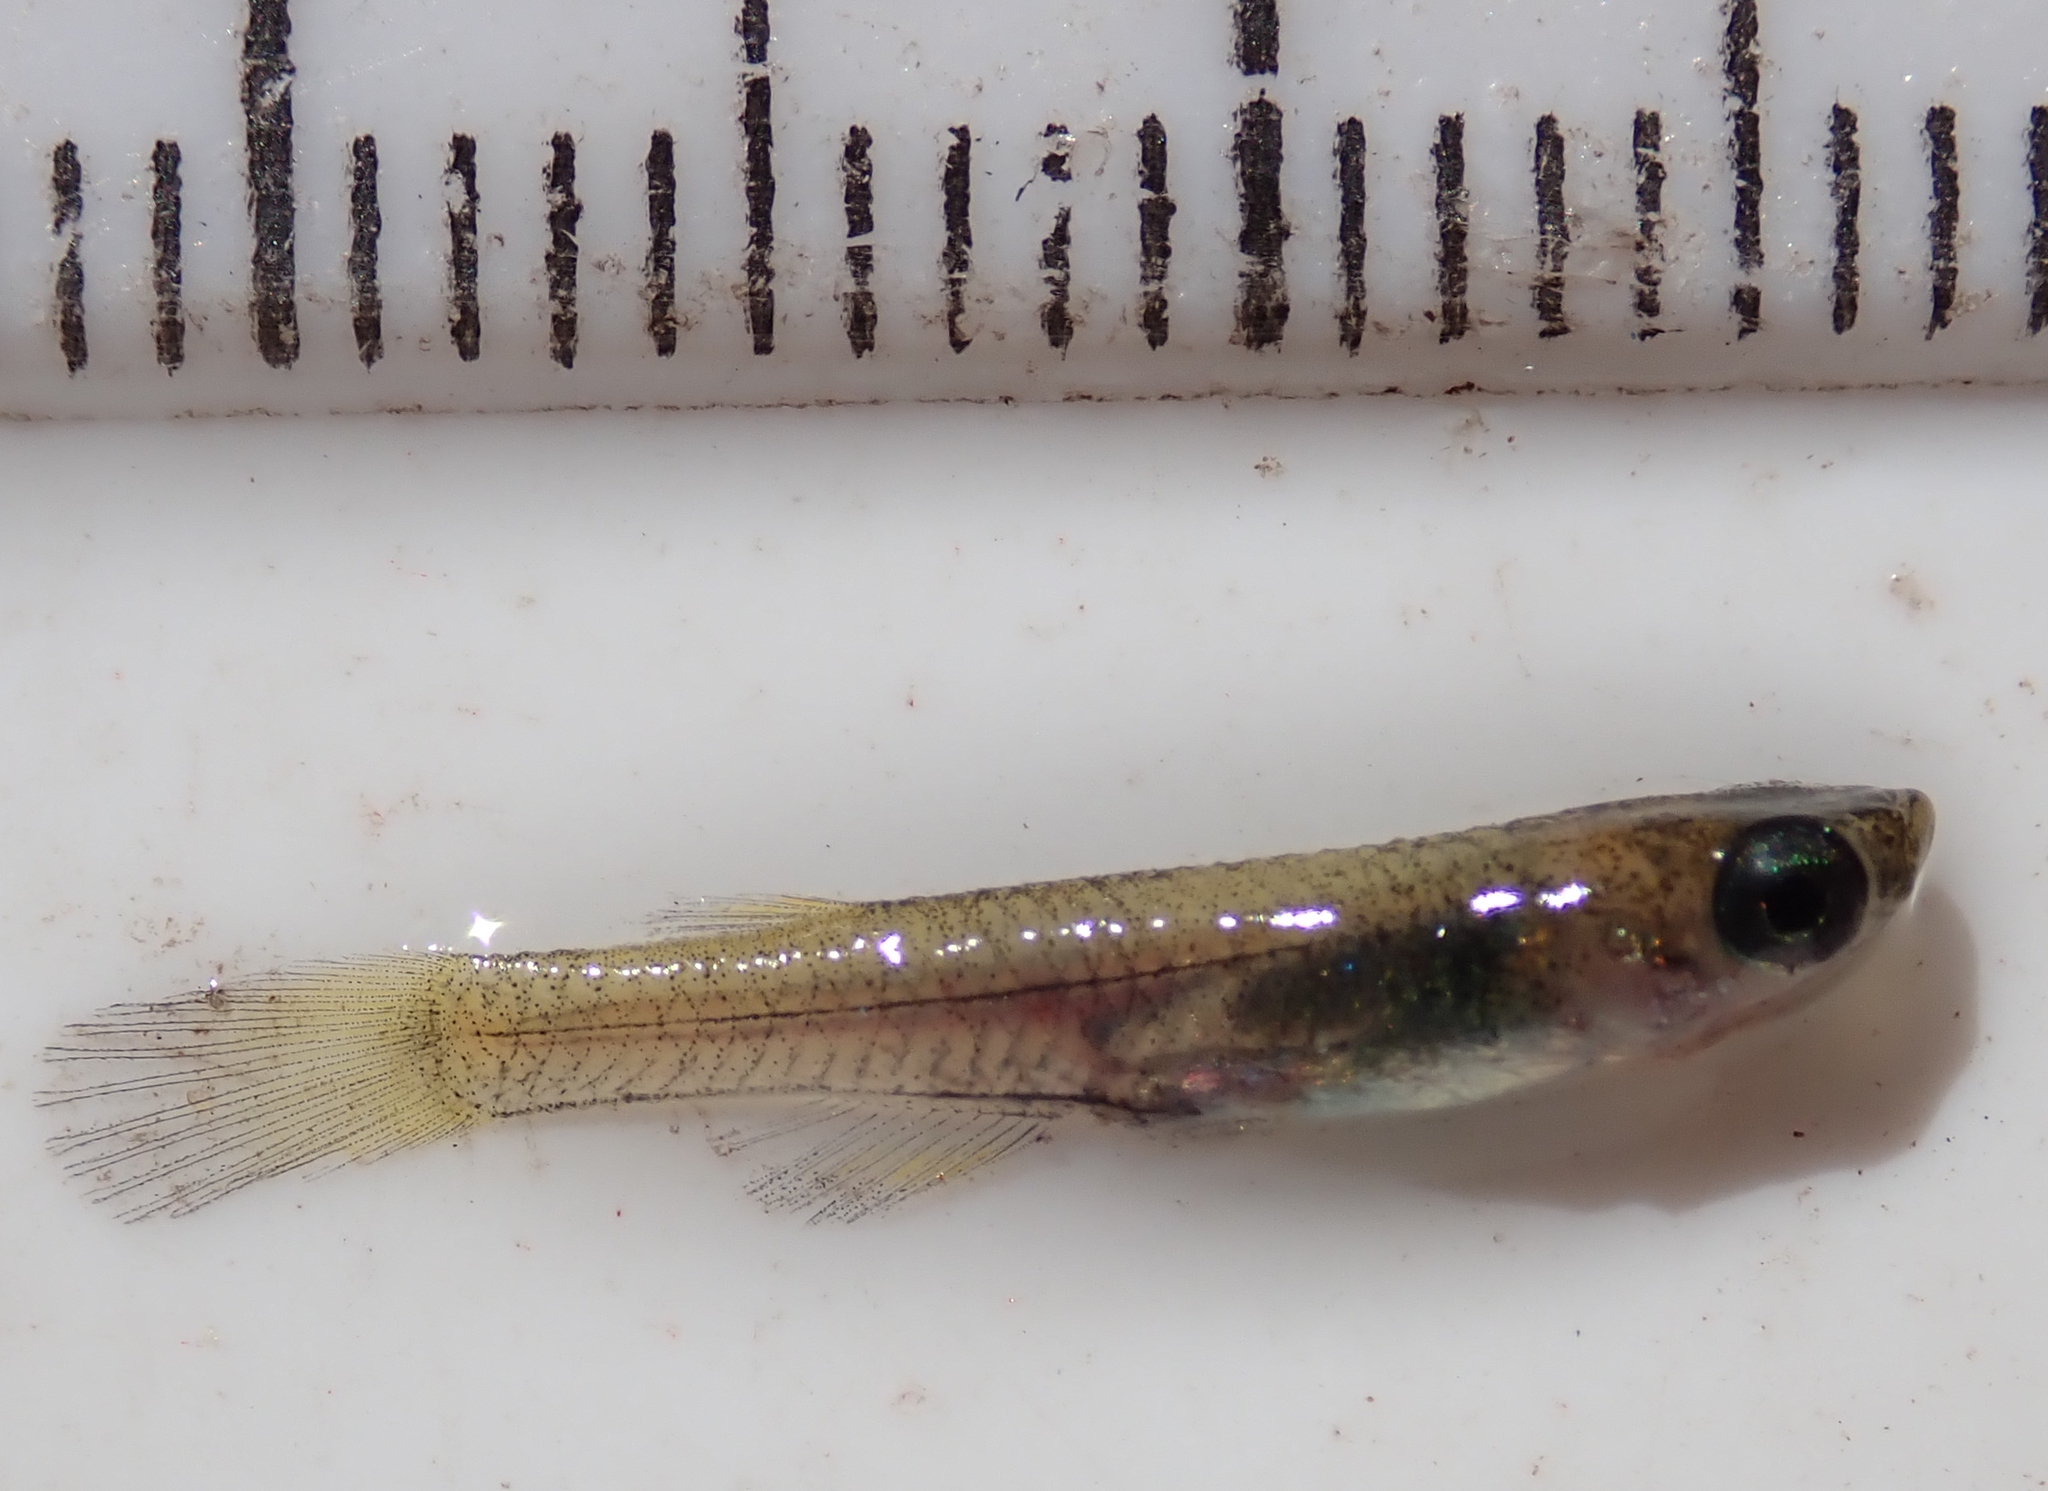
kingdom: Animalia
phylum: Chordata
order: Cyprinodontiformes
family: Poeciliidae
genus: Micropanchax
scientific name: Micropanchax johnstoni
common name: Johnston's topminnow
